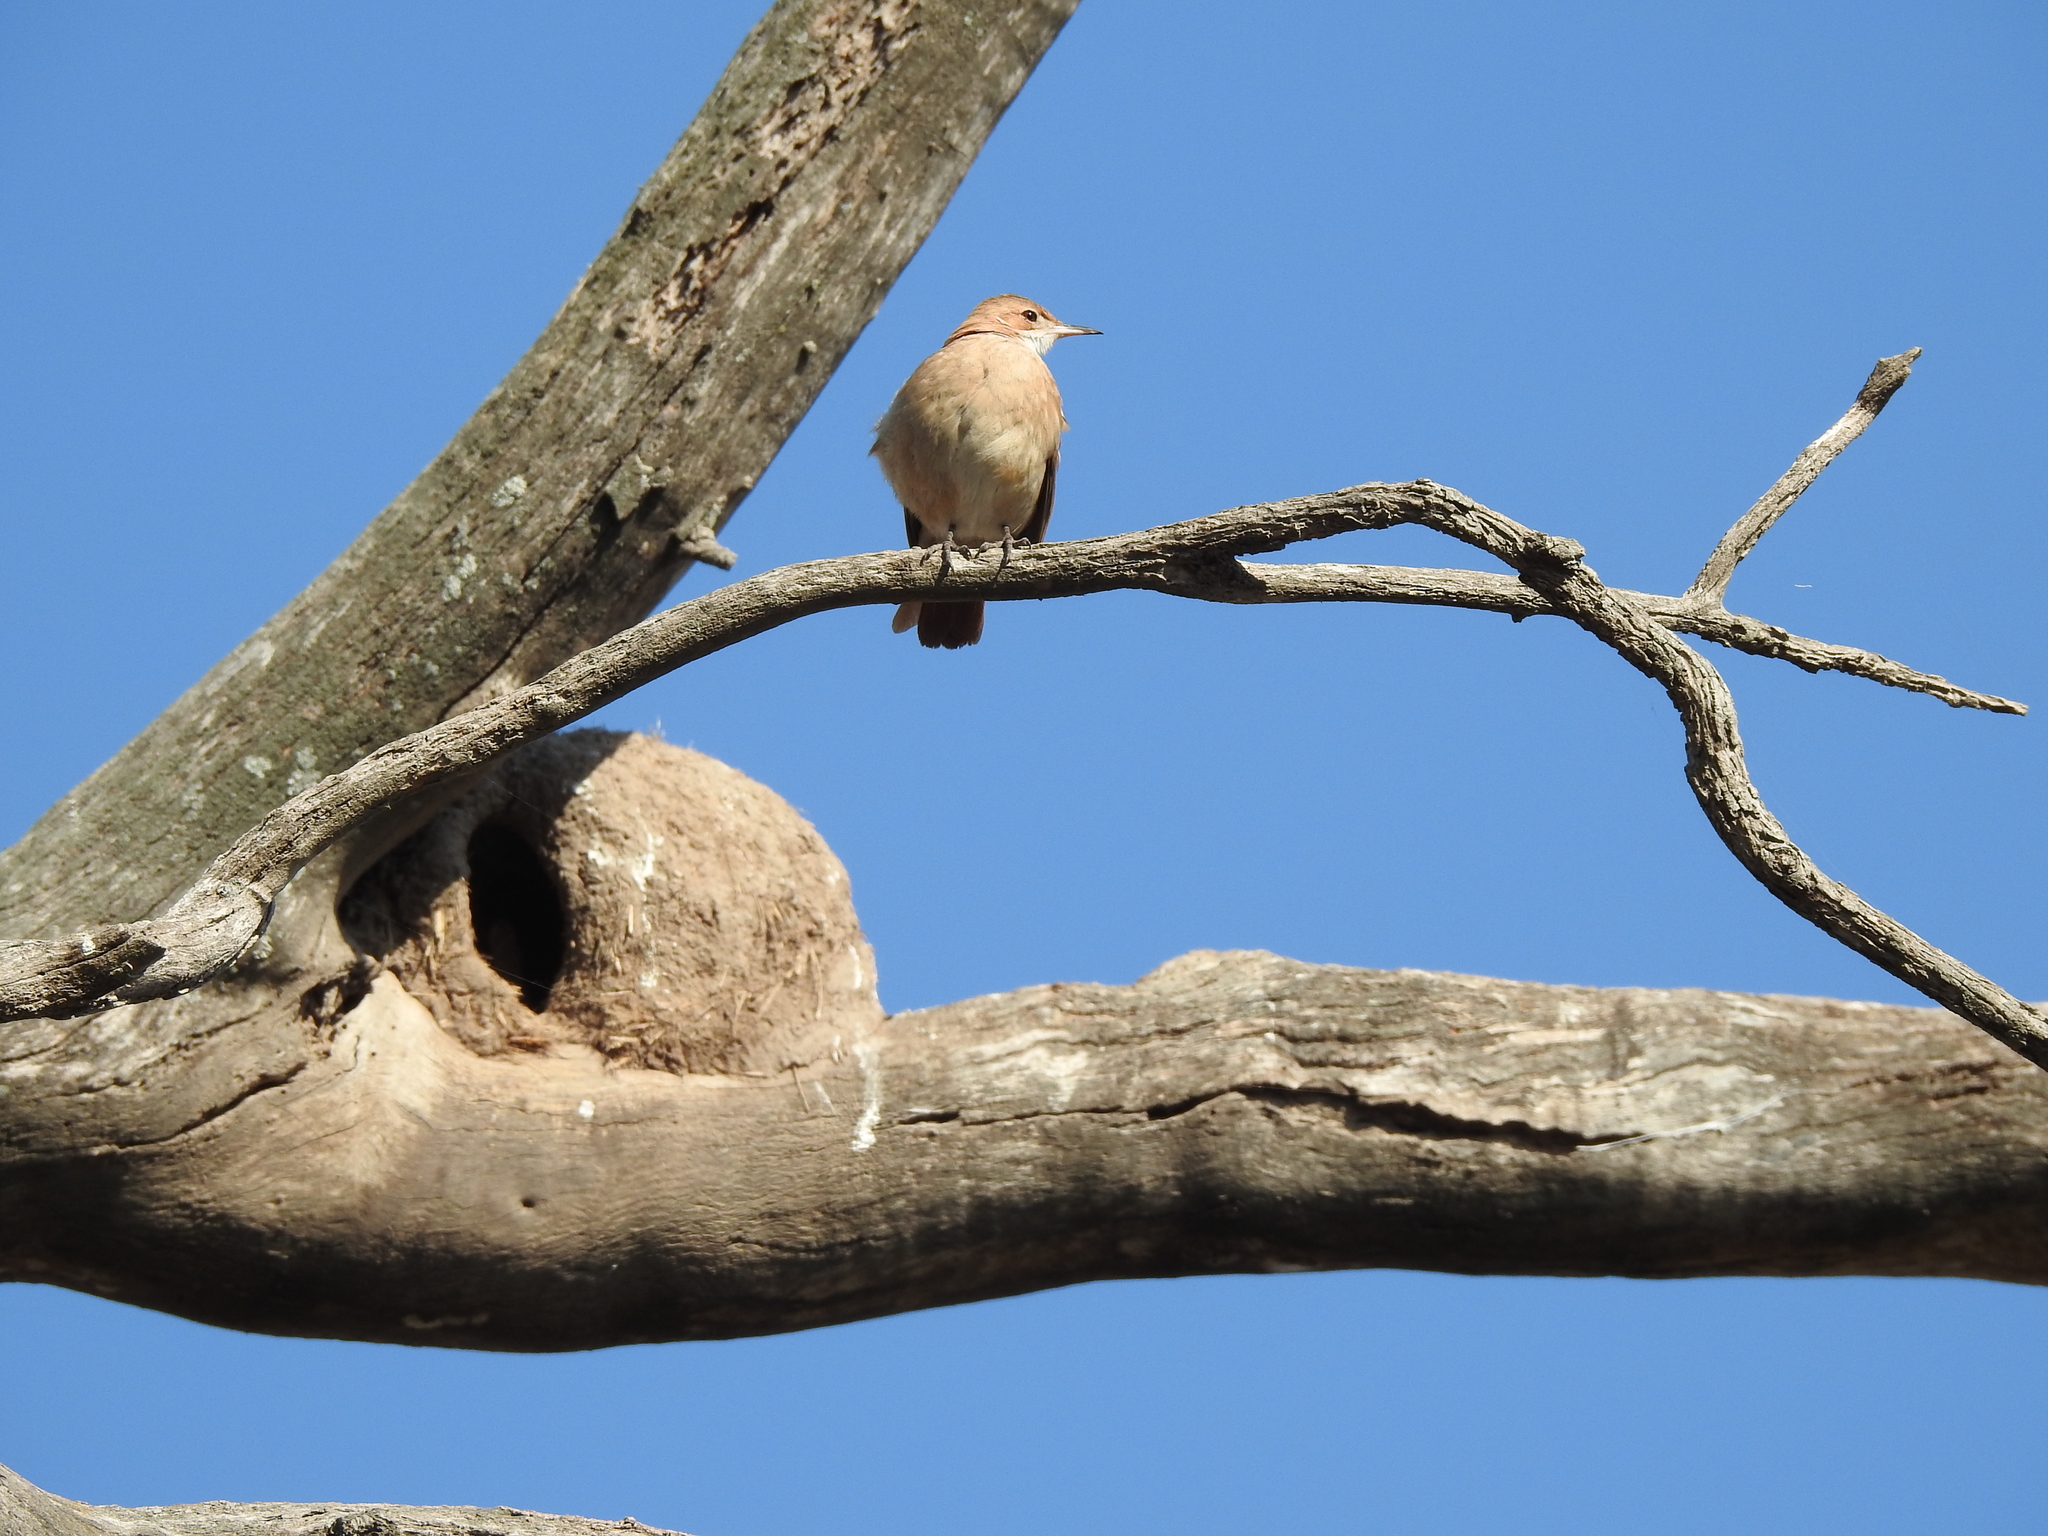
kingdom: Animalia
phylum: Chordata
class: Aves
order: Passeriformes
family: Furnariidae
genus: Furnarius
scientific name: Furnarius rufus
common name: Rufous hornero
